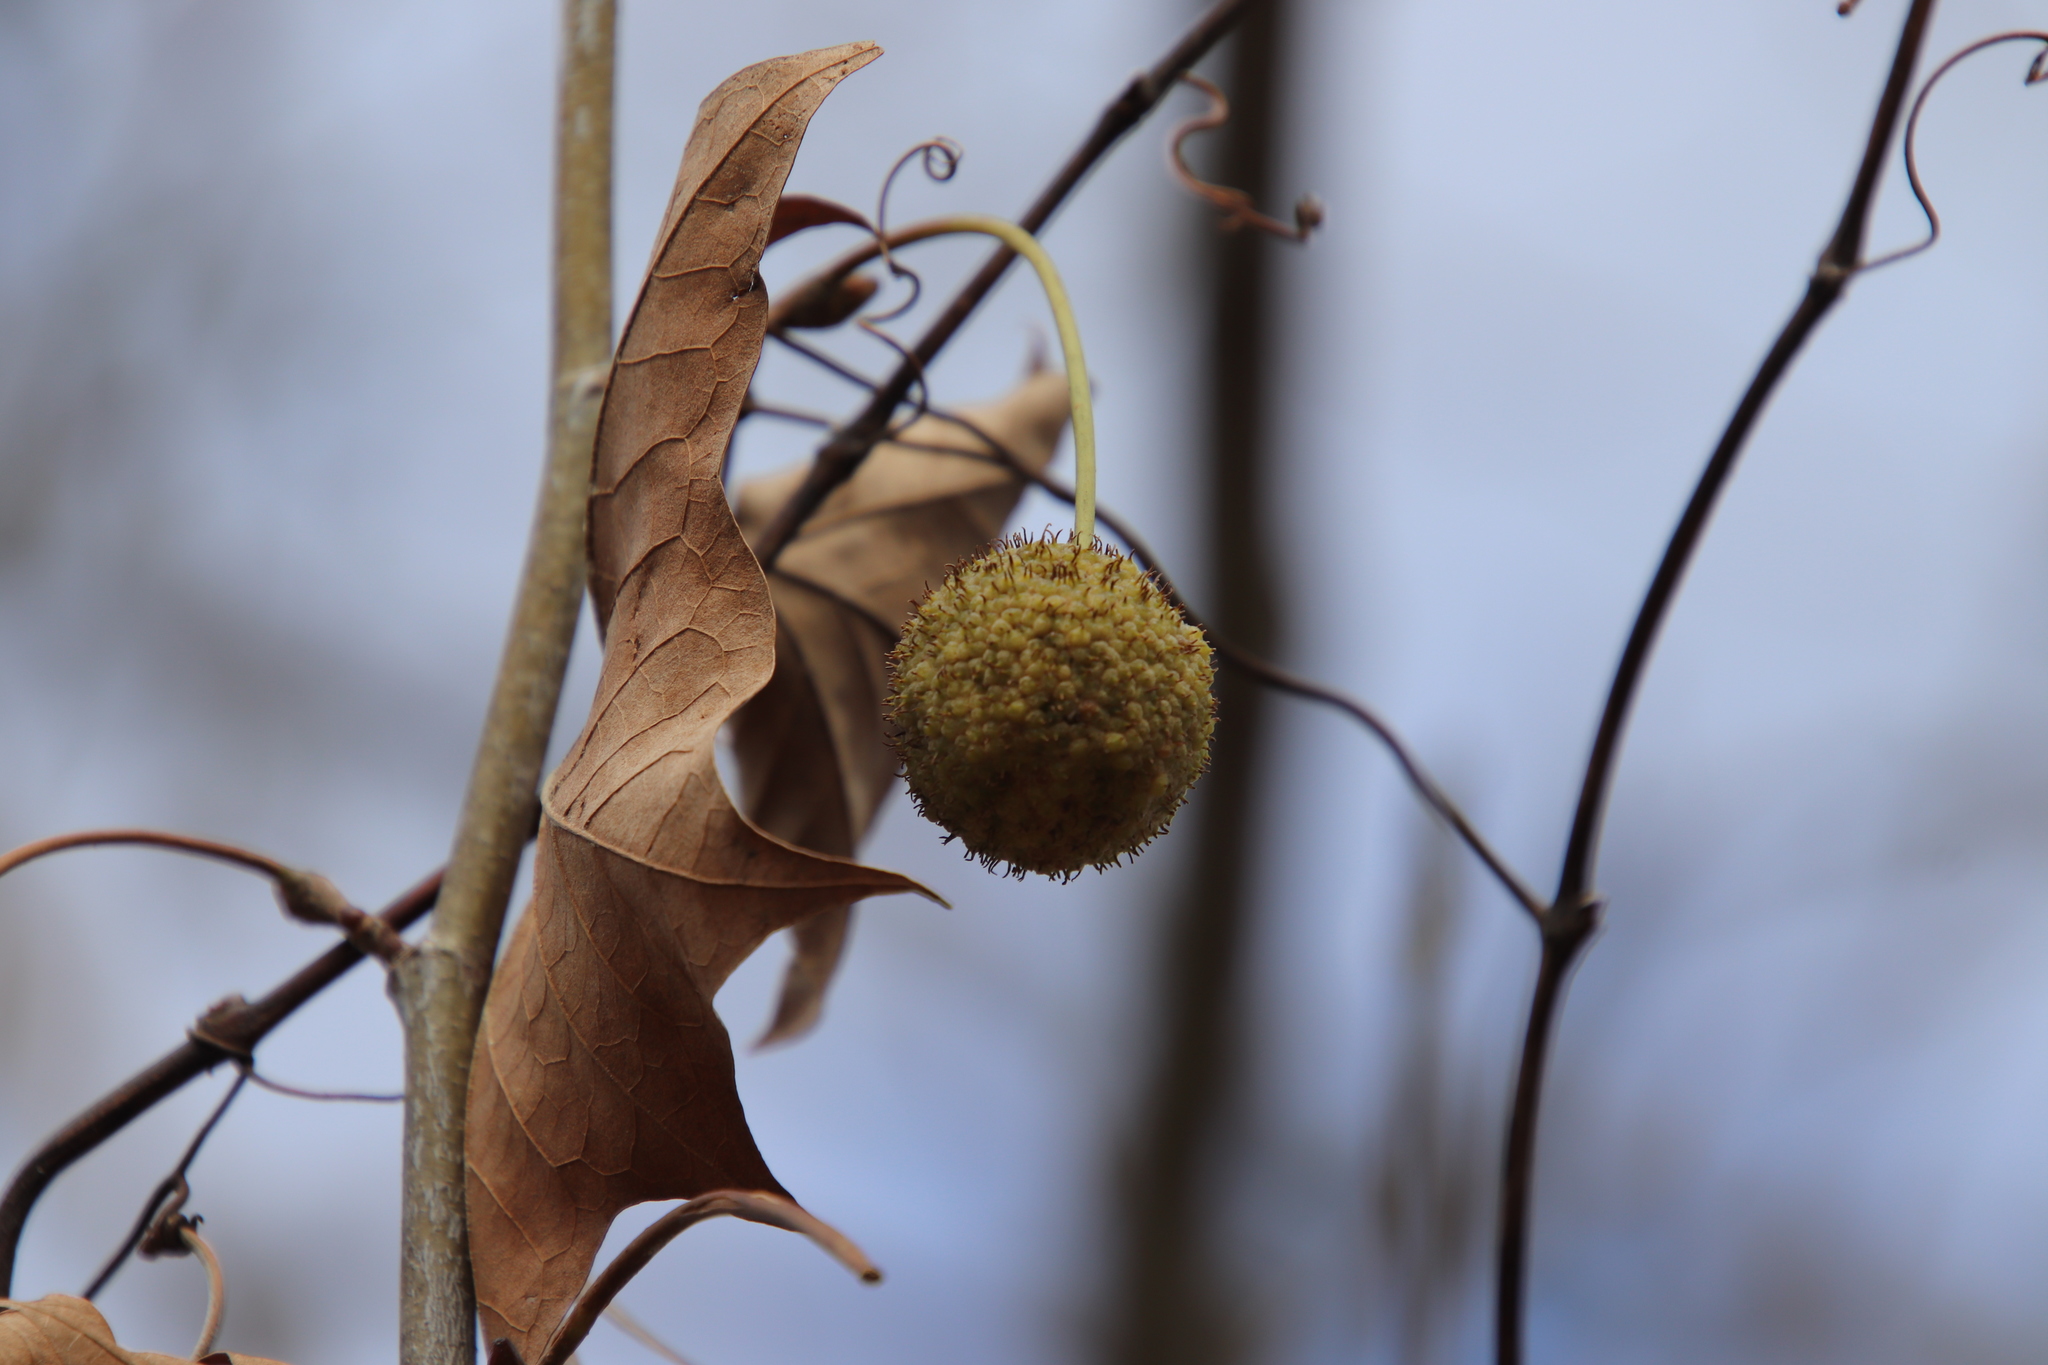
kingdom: Plantae
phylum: Tracheophyta
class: Magnoliopsida
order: Proteales
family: Platanaceae
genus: Platanus
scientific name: Platanus occidentalis
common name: American sycamore
